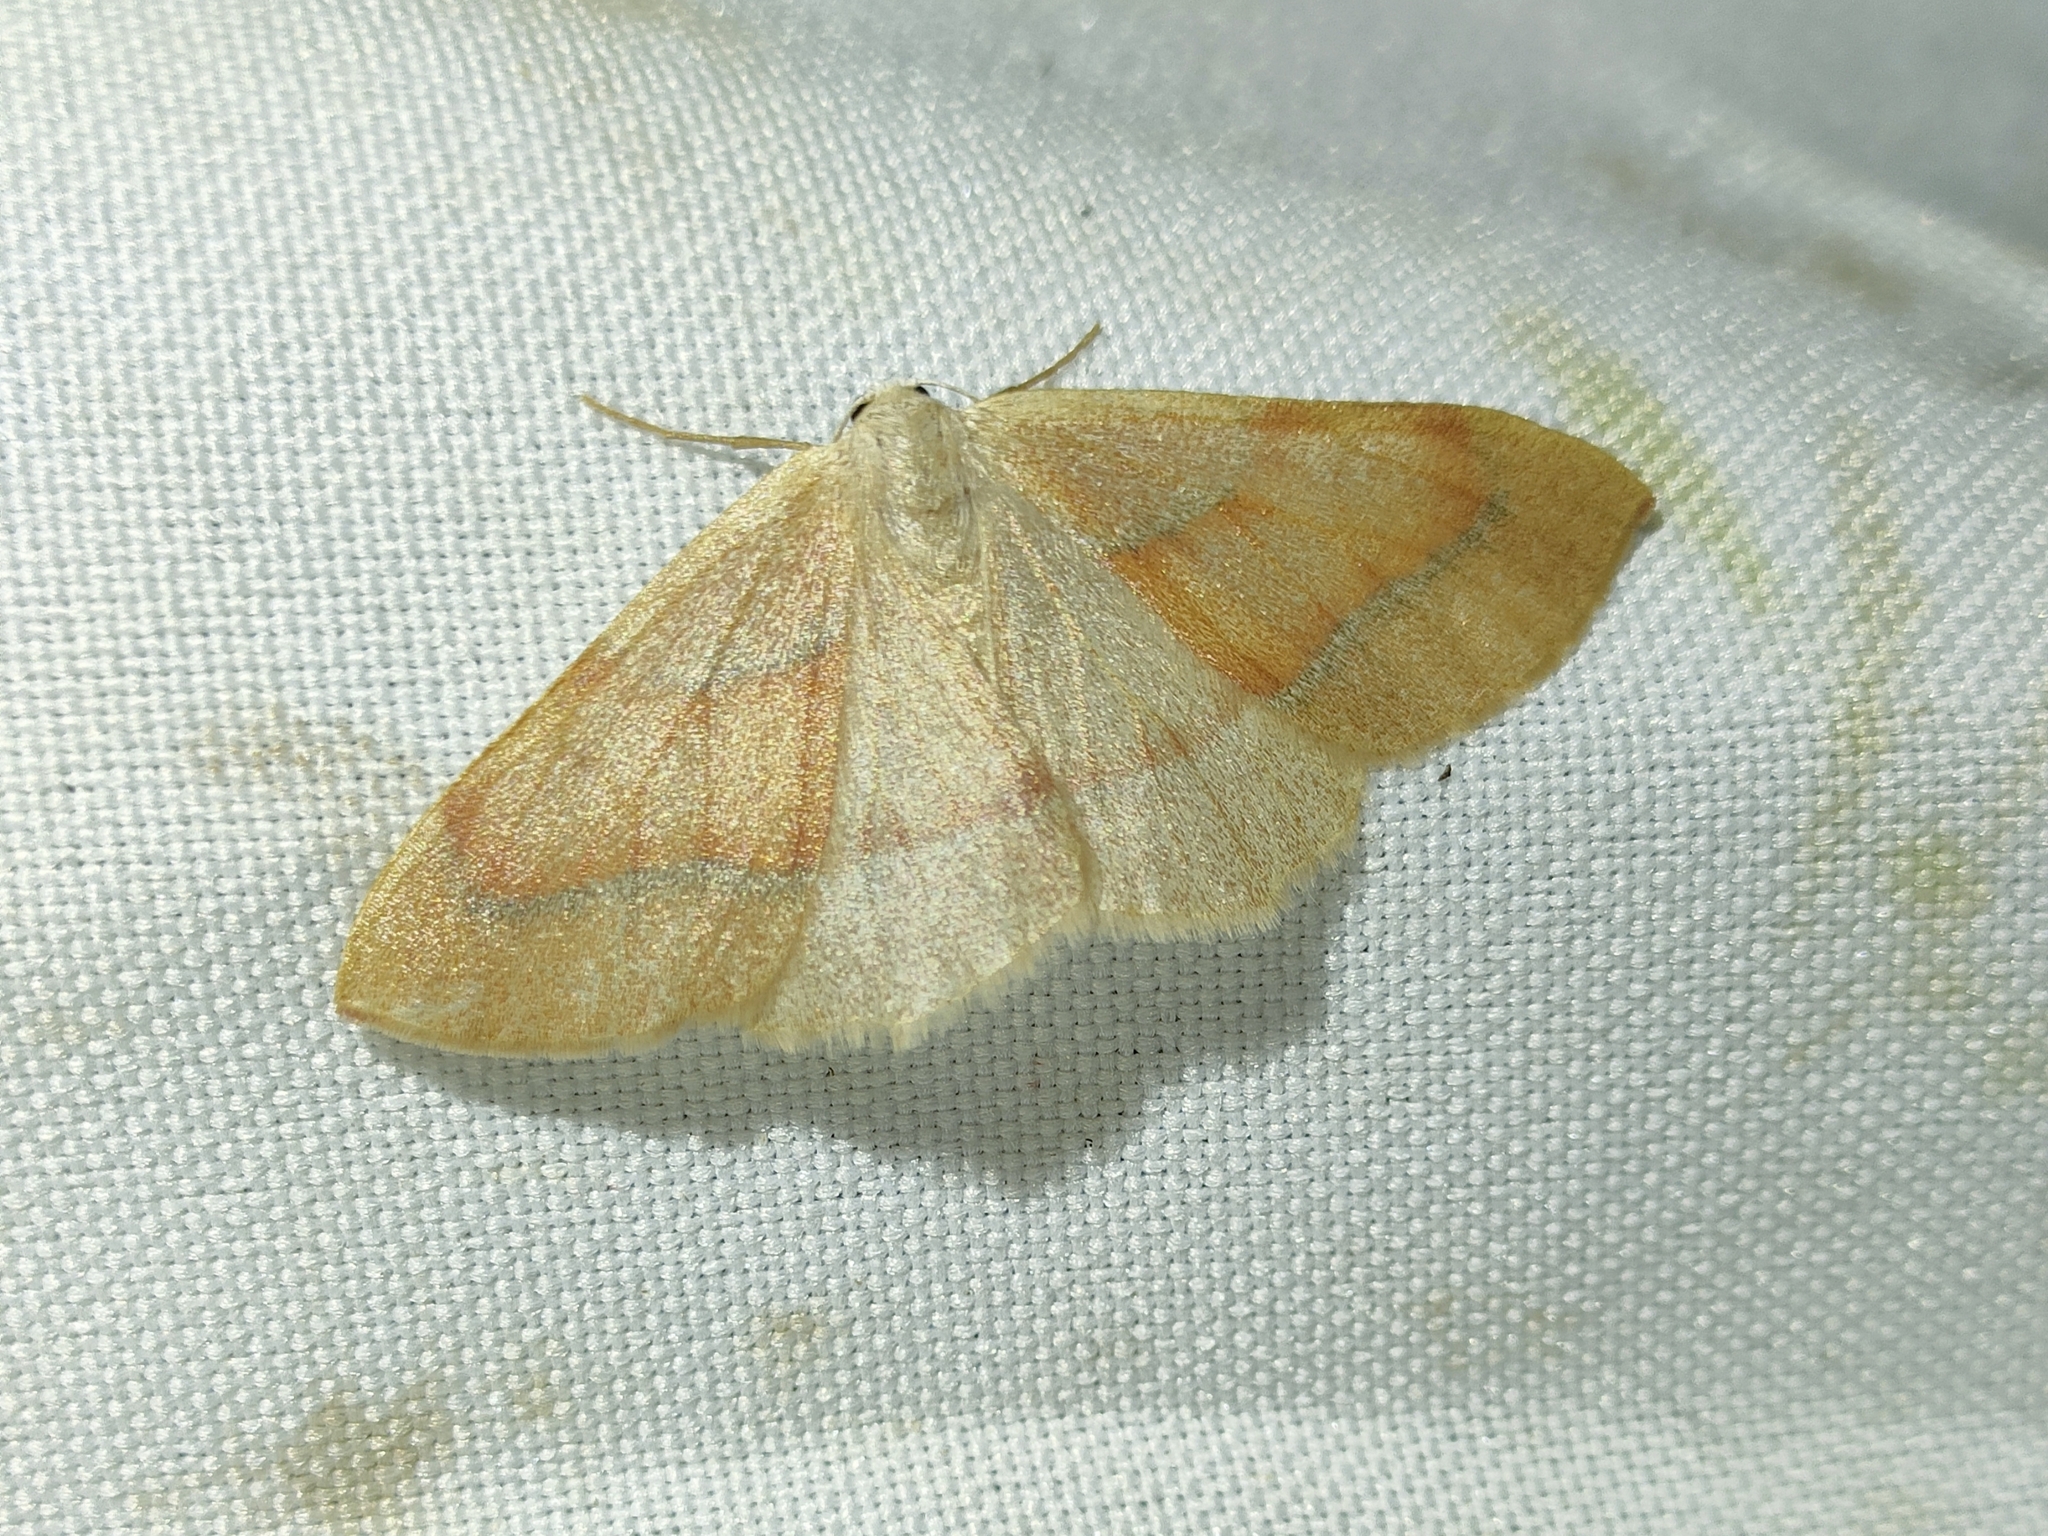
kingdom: Animalia
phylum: Arthropoda
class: Insecta
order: Lepidoptera
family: Geometridae
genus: Hylaea
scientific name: Hylaea fasciaria
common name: Barred red
